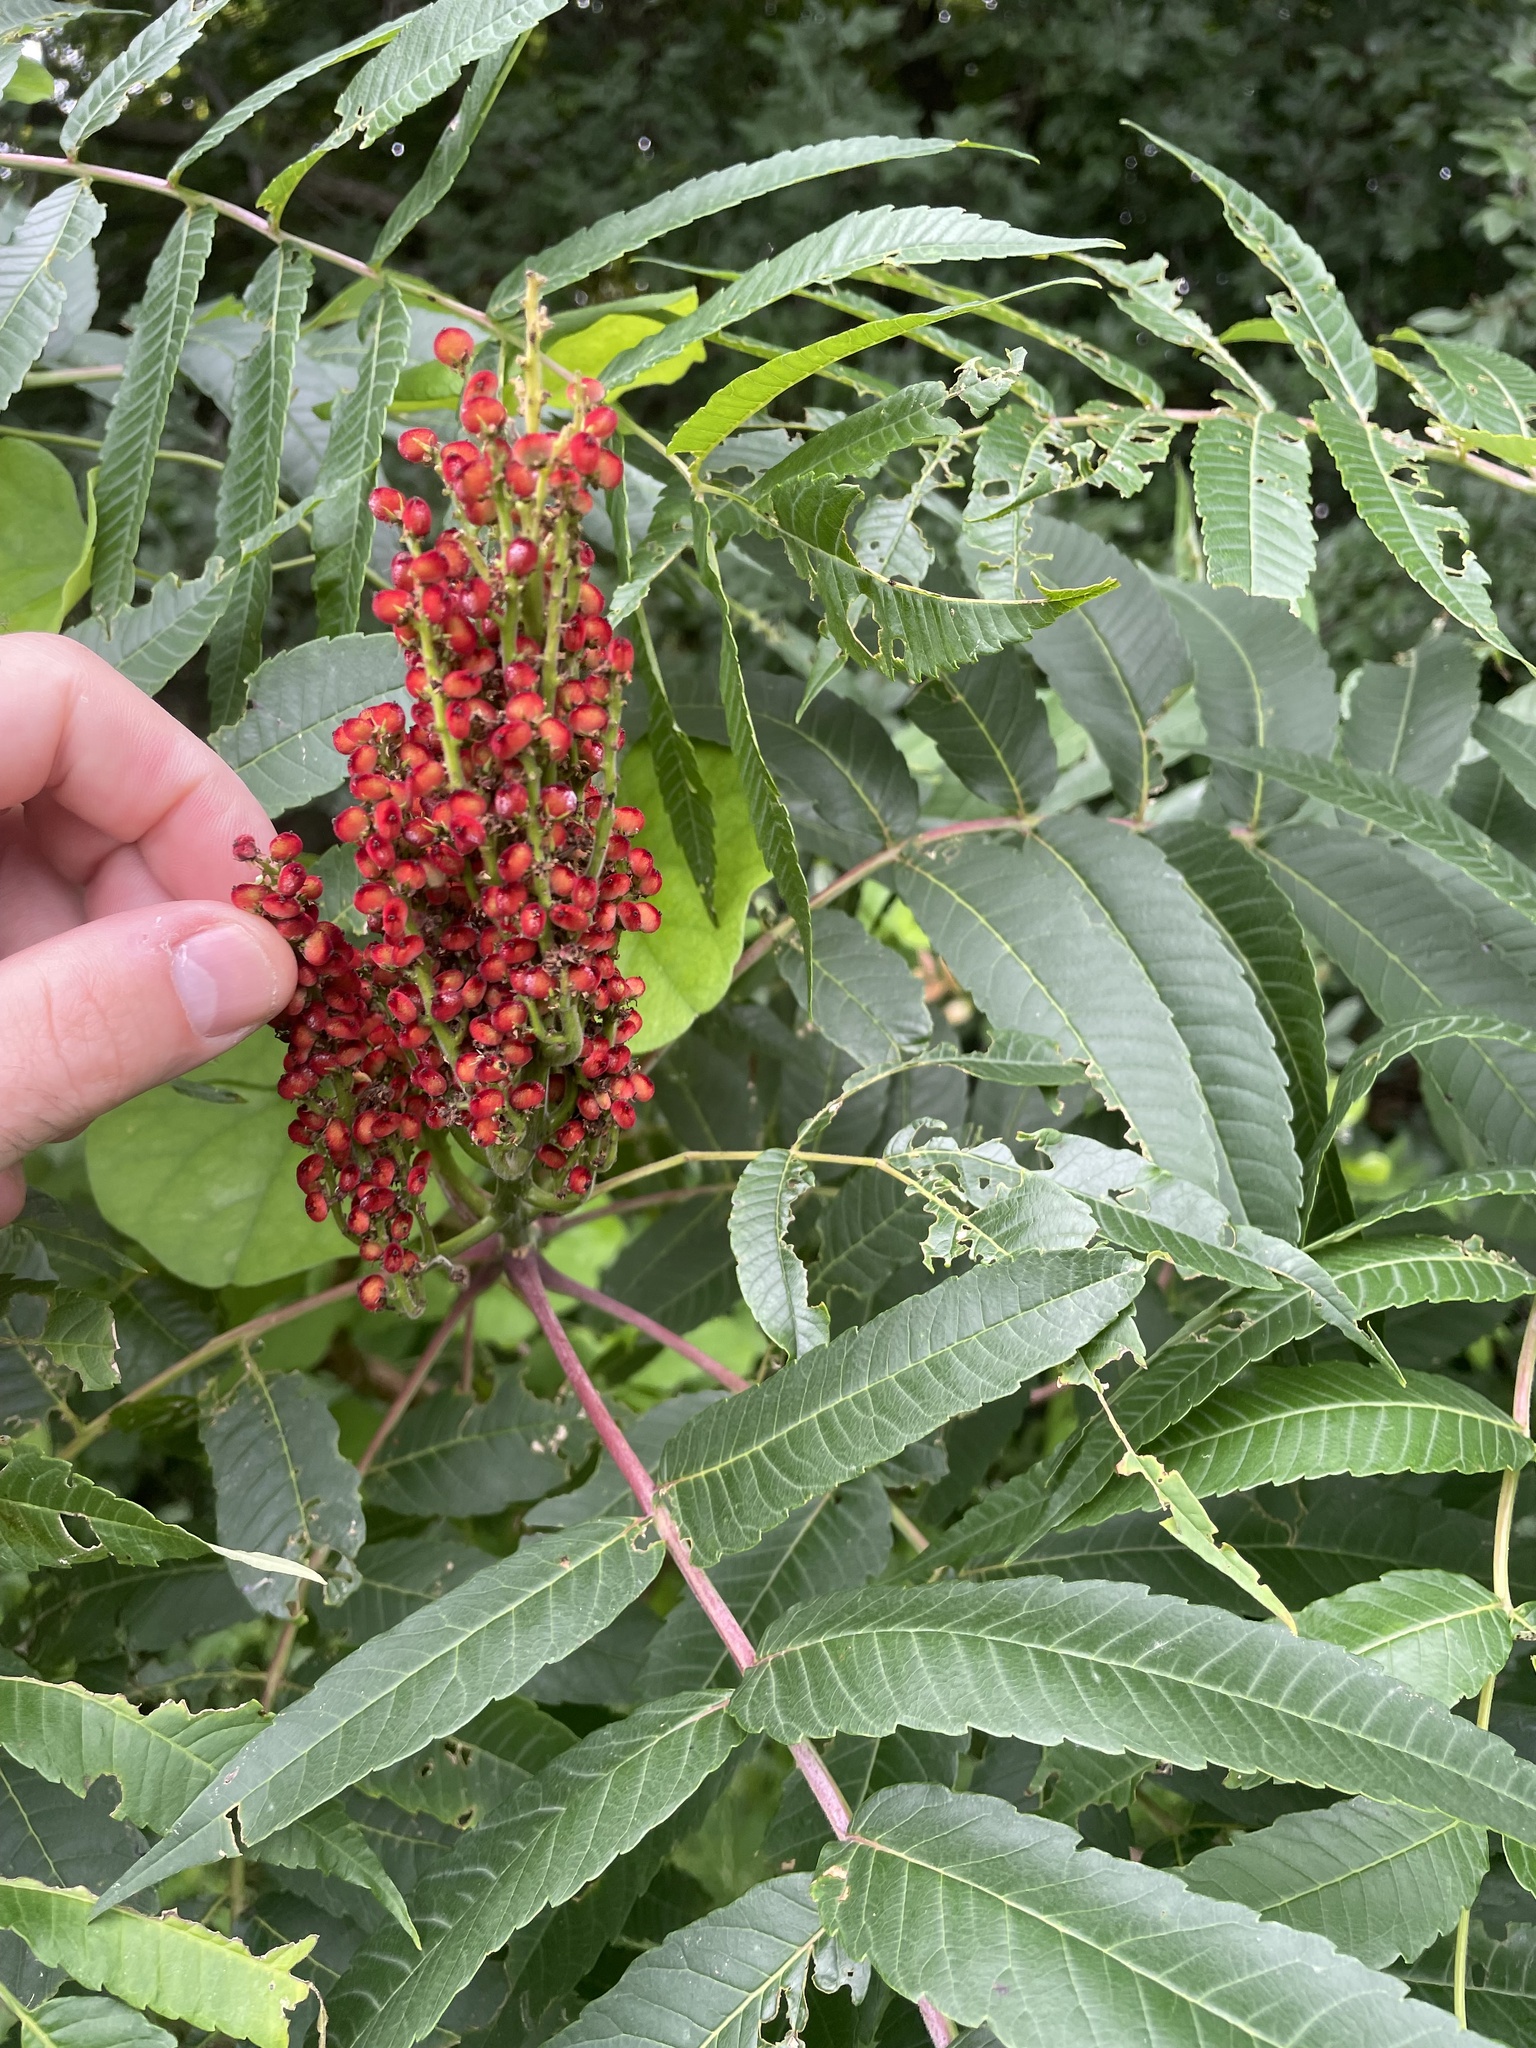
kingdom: Plantae
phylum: Tracheophyta
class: Magnoliopsida
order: Sapindales
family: Anacardiaceae
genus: Rhus
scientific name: Rhus glabra
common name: Scarlet sumac
